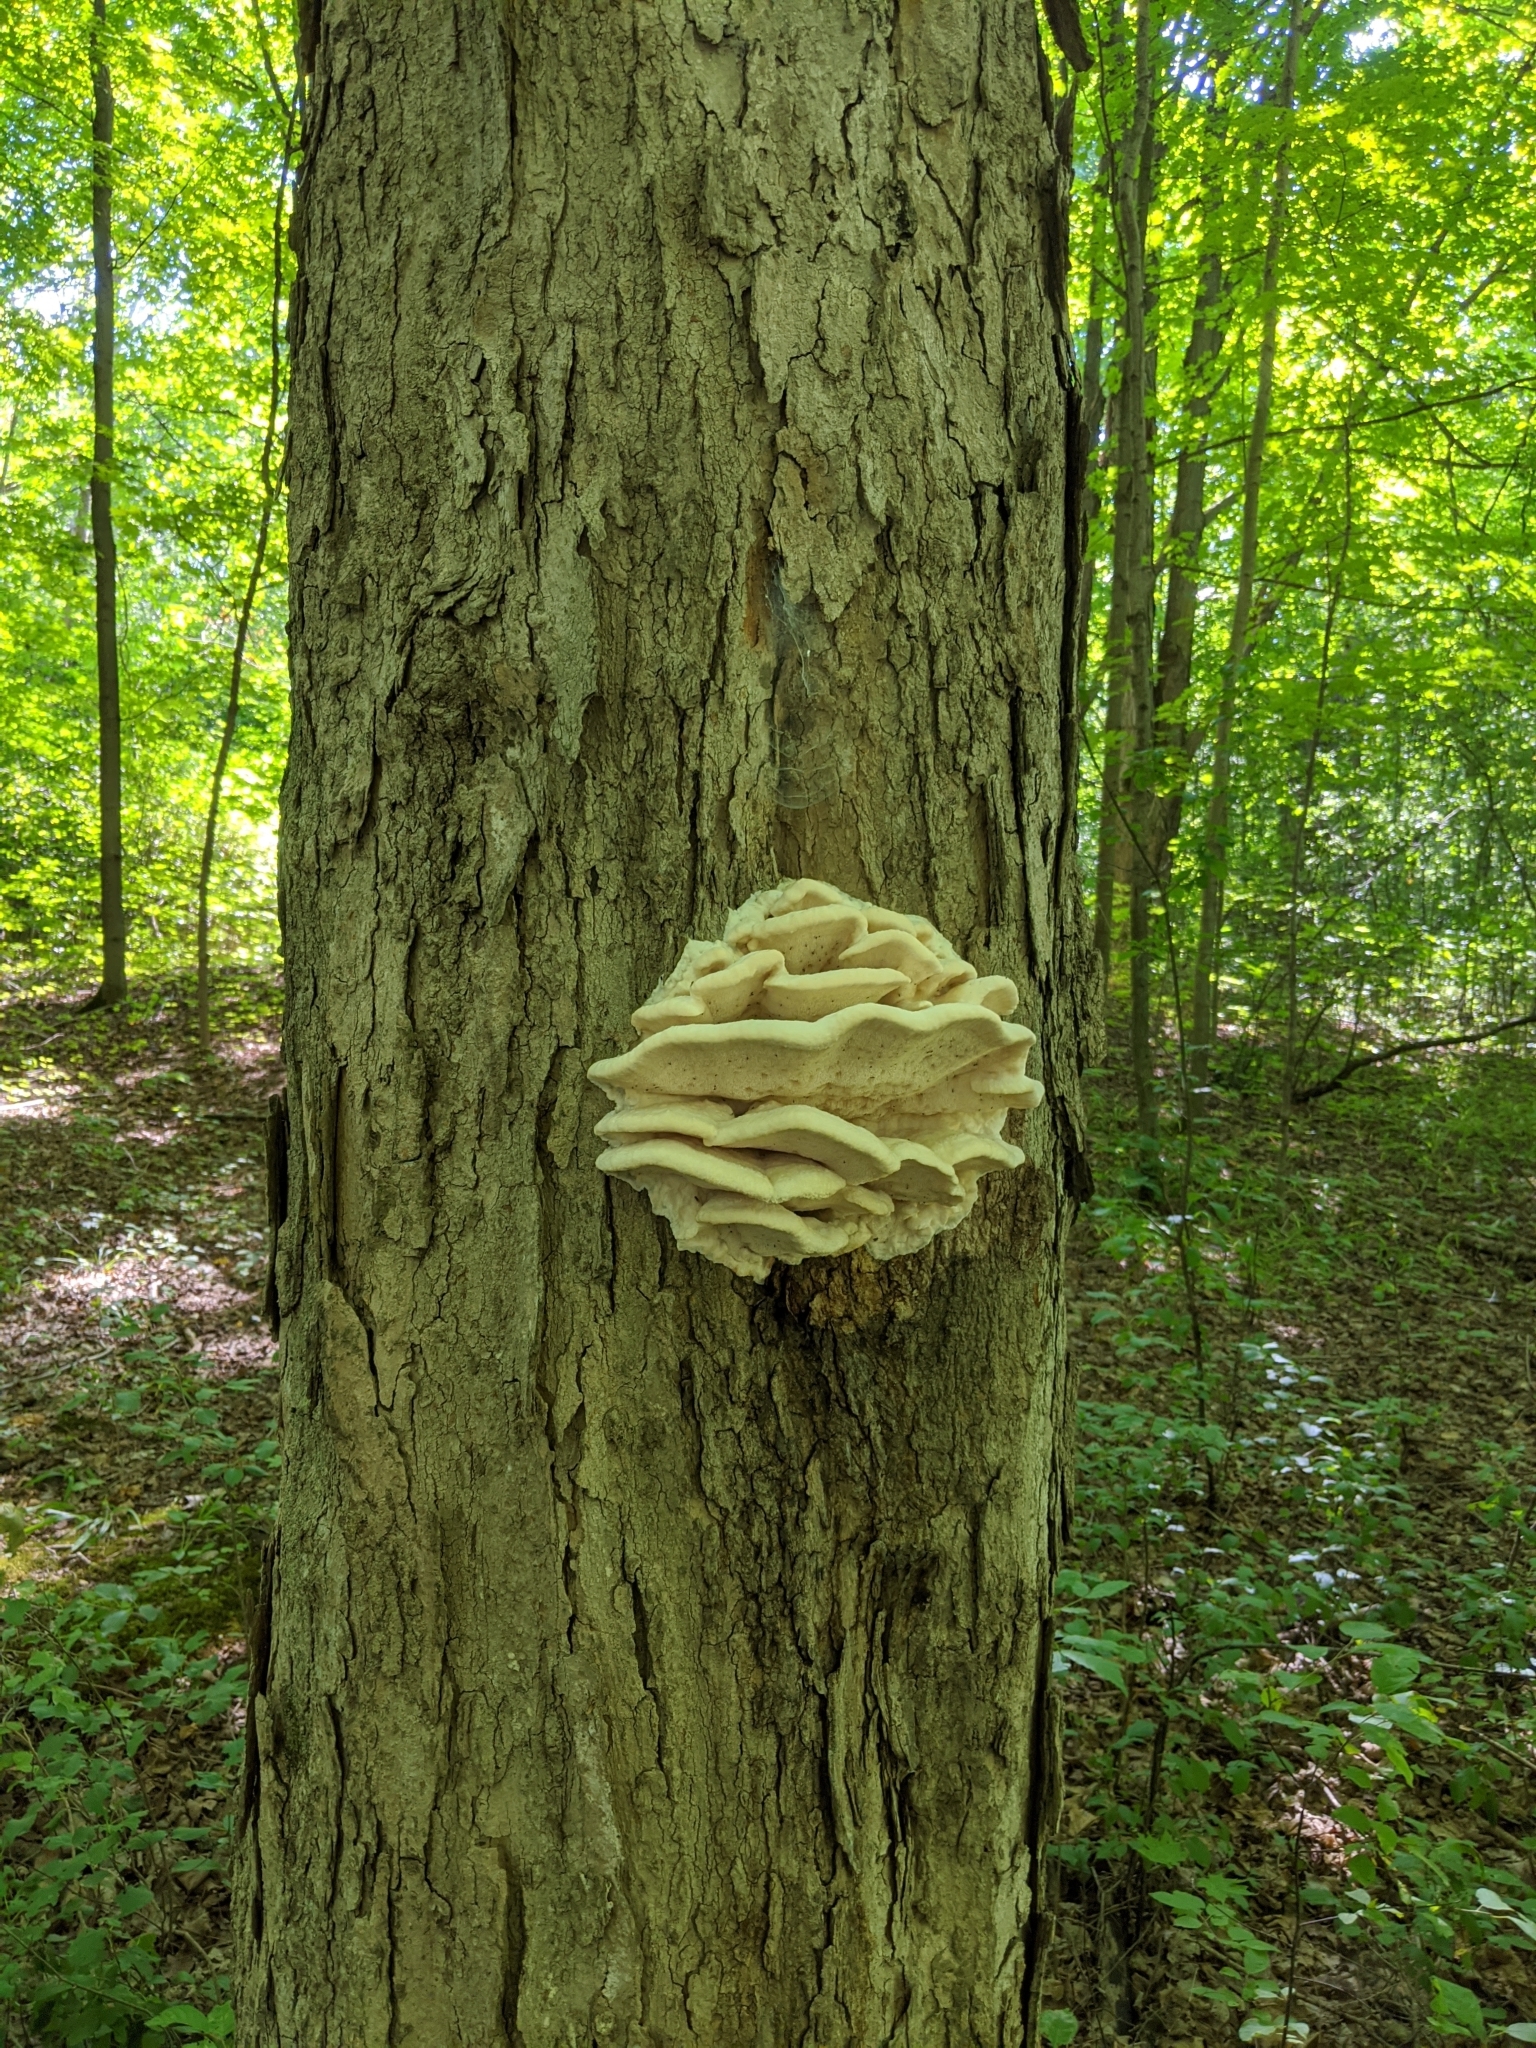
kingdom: Fungi
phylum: Basidiomycota
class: Agaricomycetes
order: Polyporales
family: Meruliaceae
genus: Climacodon
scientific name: Climacodon septentrionalis
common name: Northern tooth
